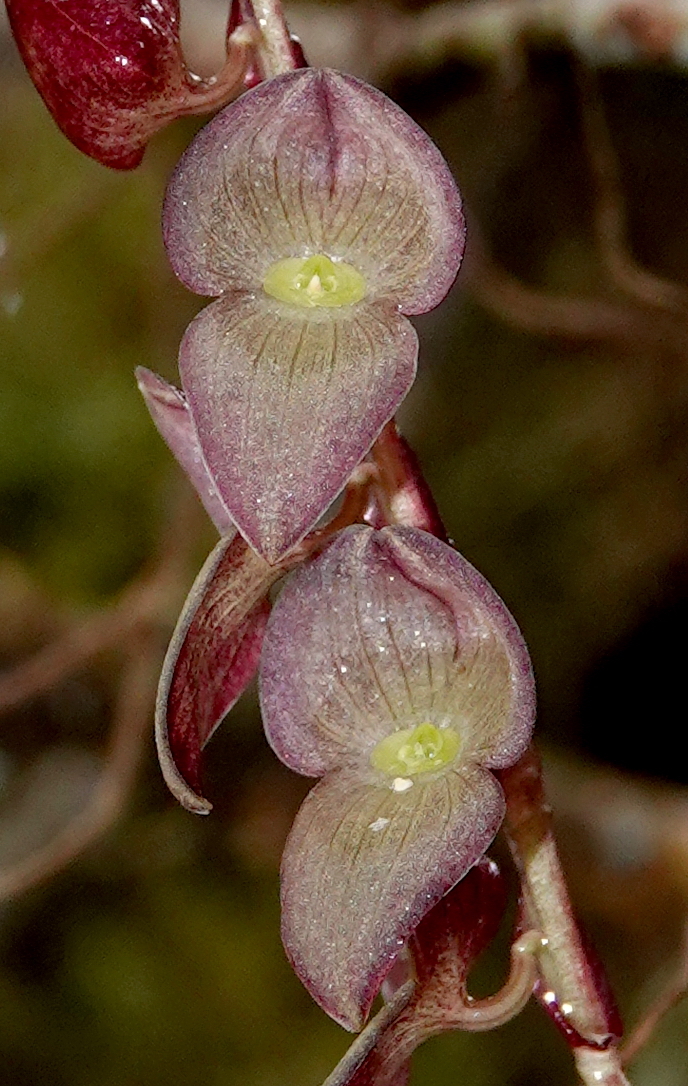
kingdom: Plantae
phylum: Tracheophyta
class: Liliopsida
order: Asparagales
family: Orchidaceae
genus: Stelis
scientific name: Stelis purpurea
